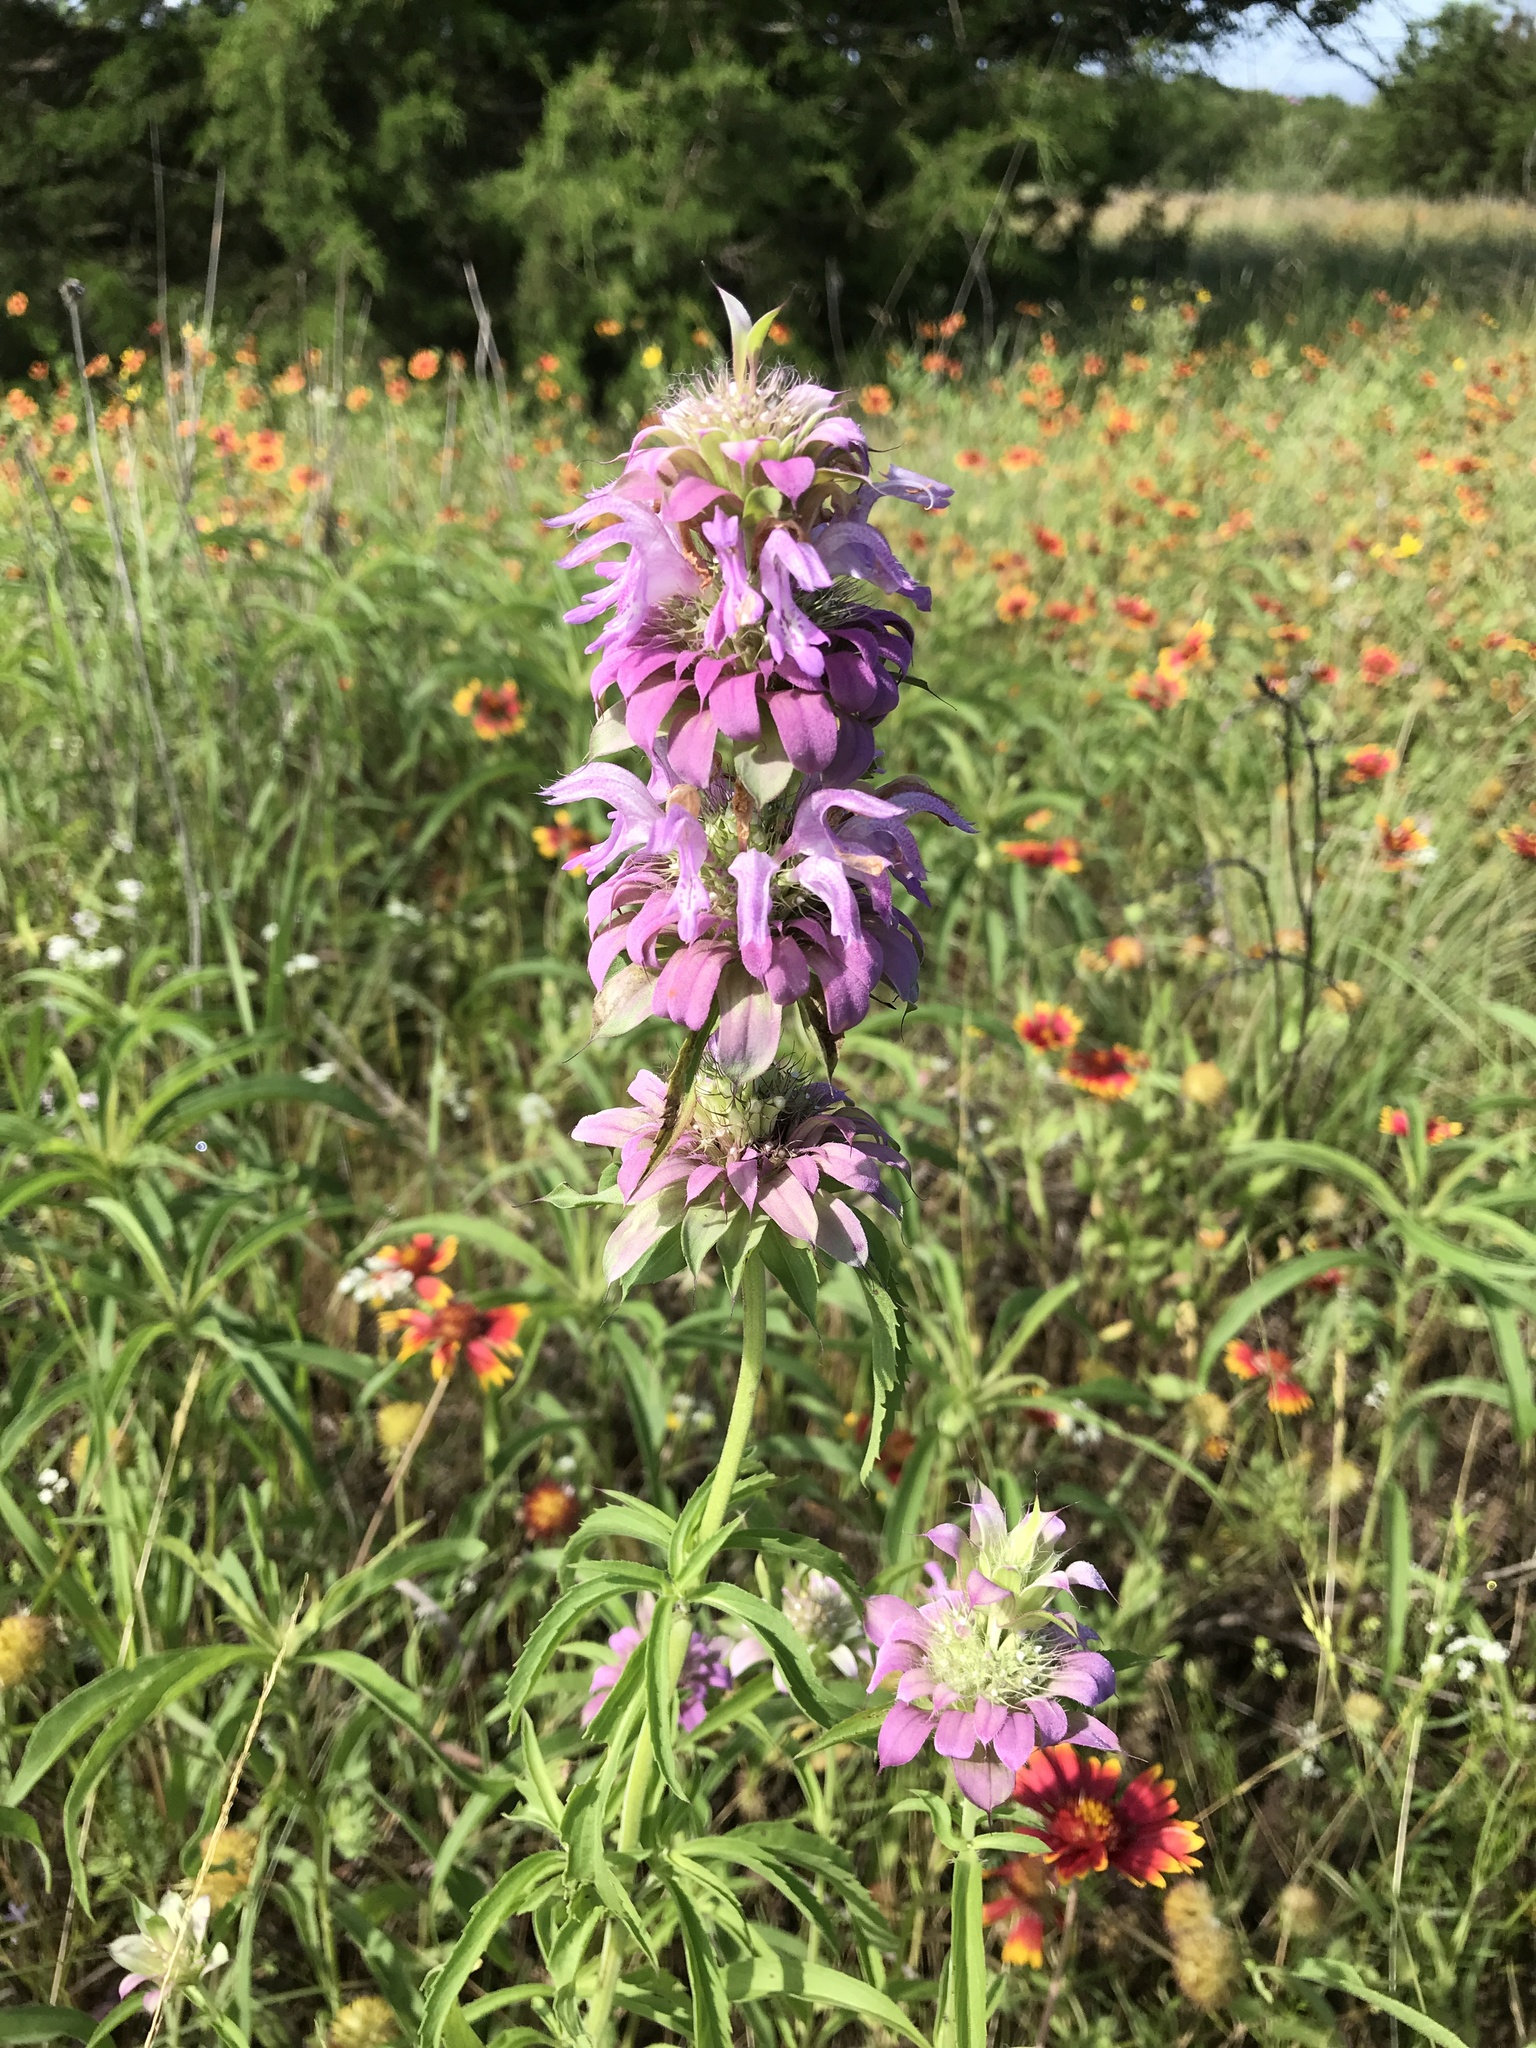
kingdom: Plantae
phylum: Tracheophyta
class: Magnoliopsida
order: Lamiales
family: Lamiaceae
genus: Monarda
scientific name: Monarda citriodora
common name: Lemon beebalm
